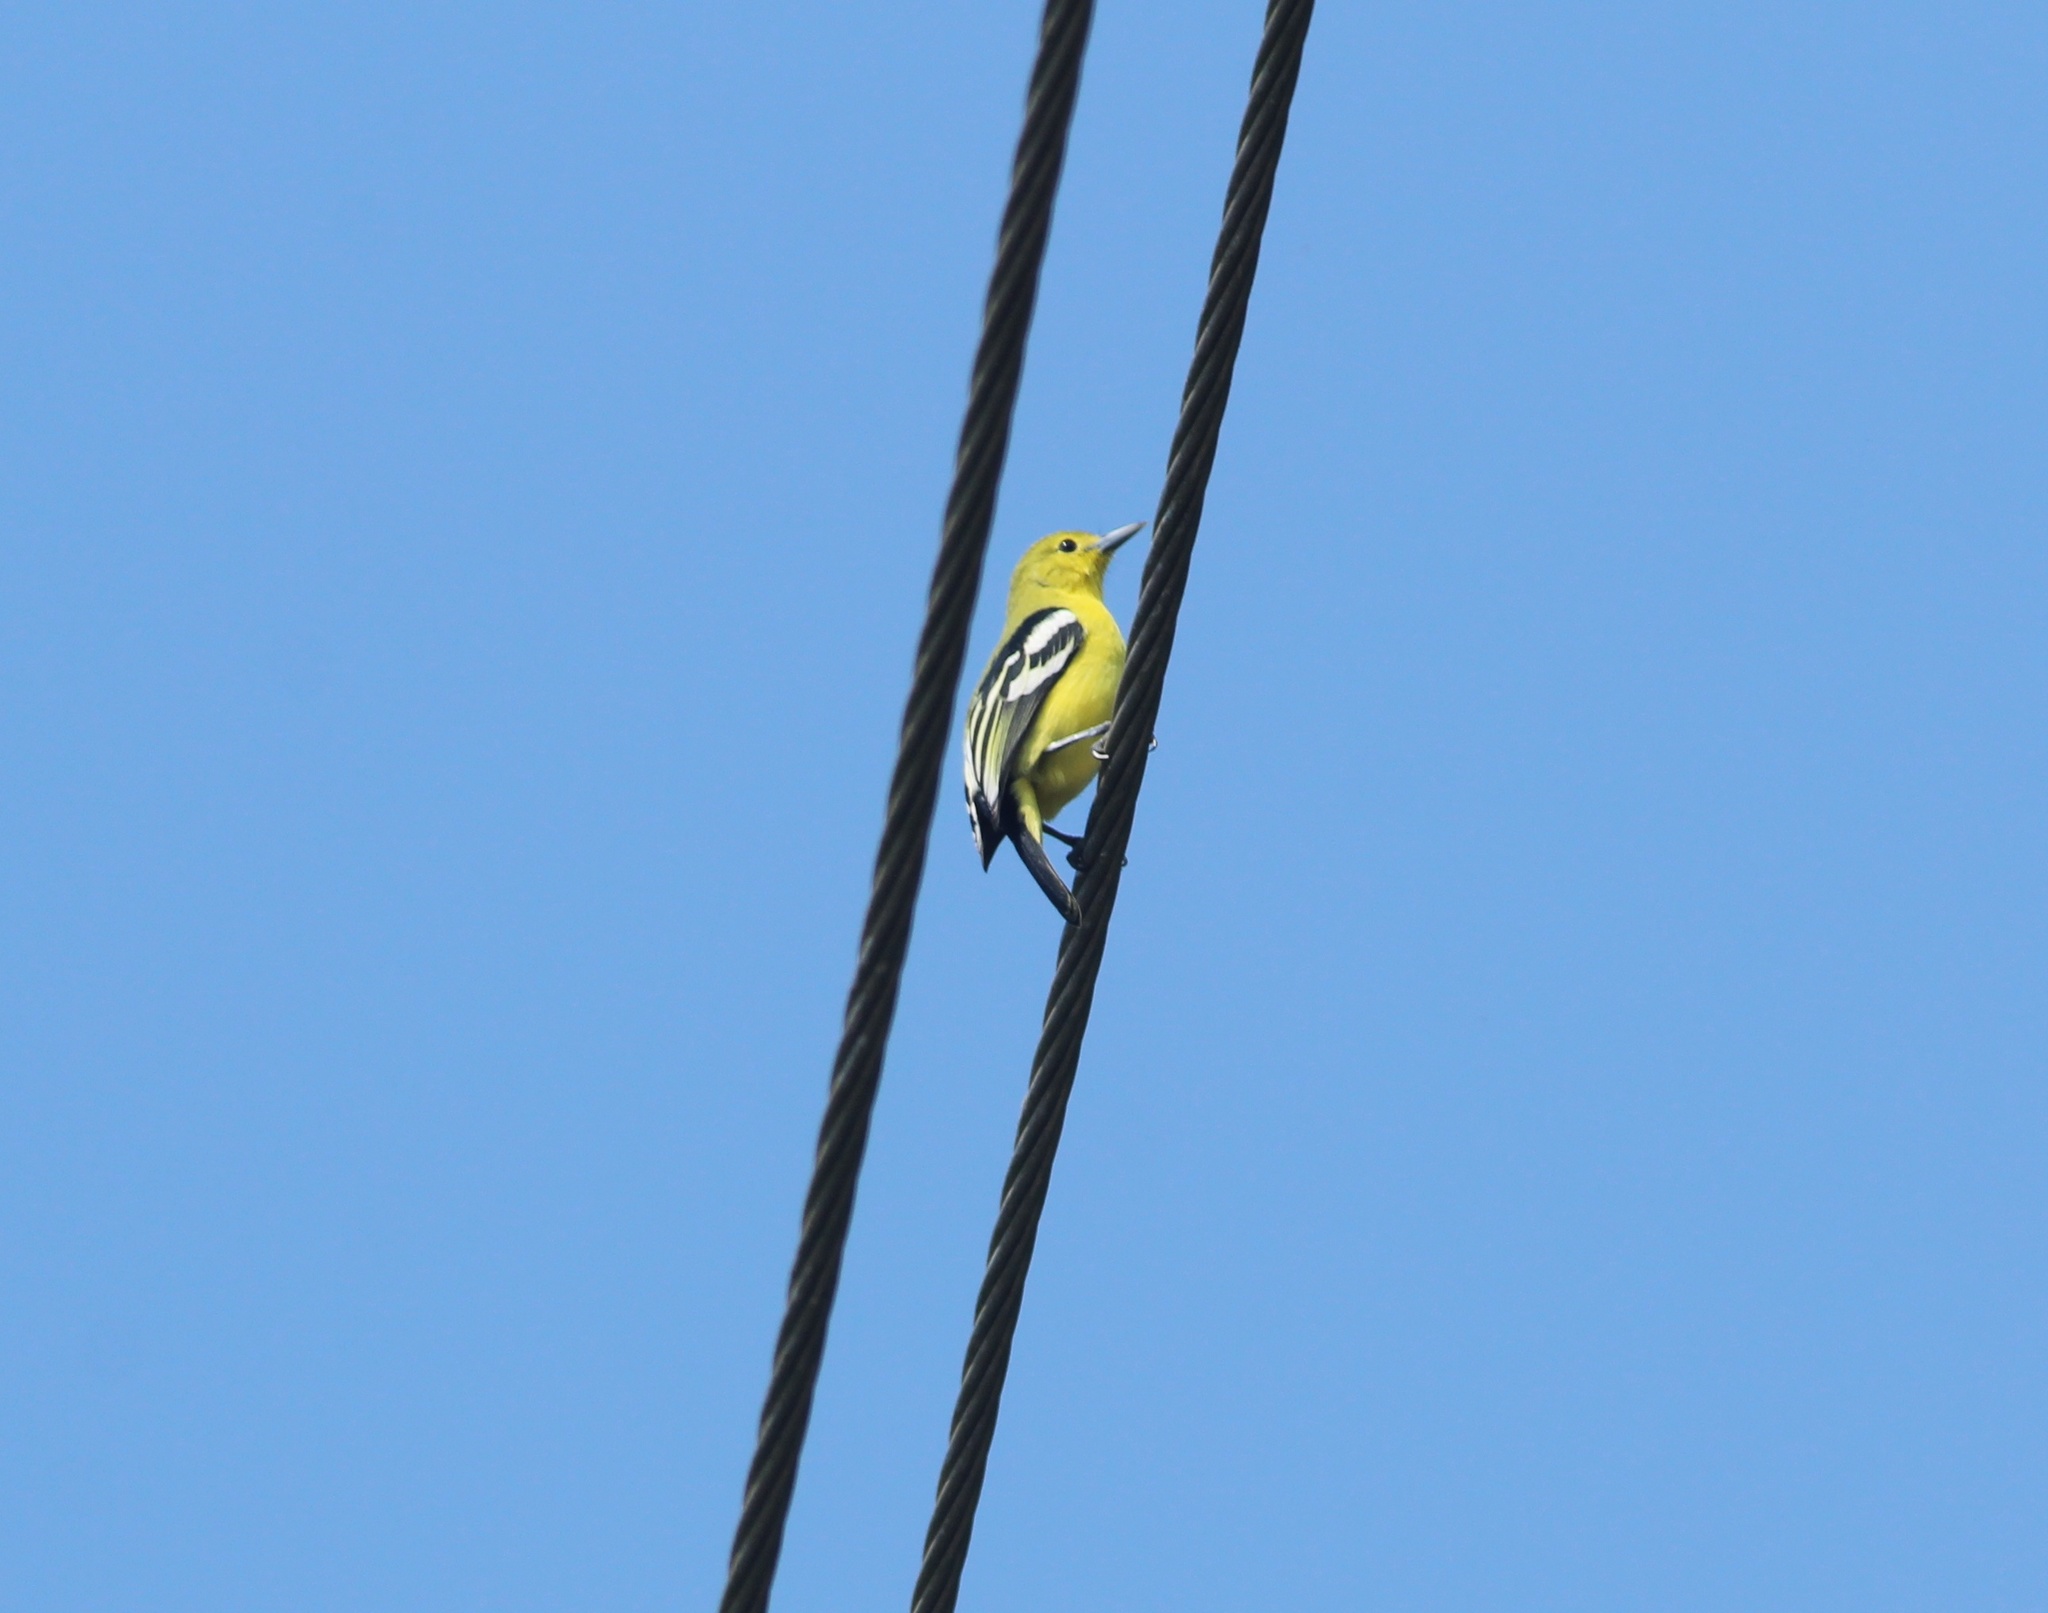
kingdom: Animalia
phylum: Chordata
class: Aves
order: Passeriformes
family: Aegithinidae
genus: Aegithina
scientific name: Aegithina tiphia
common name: Common iora
